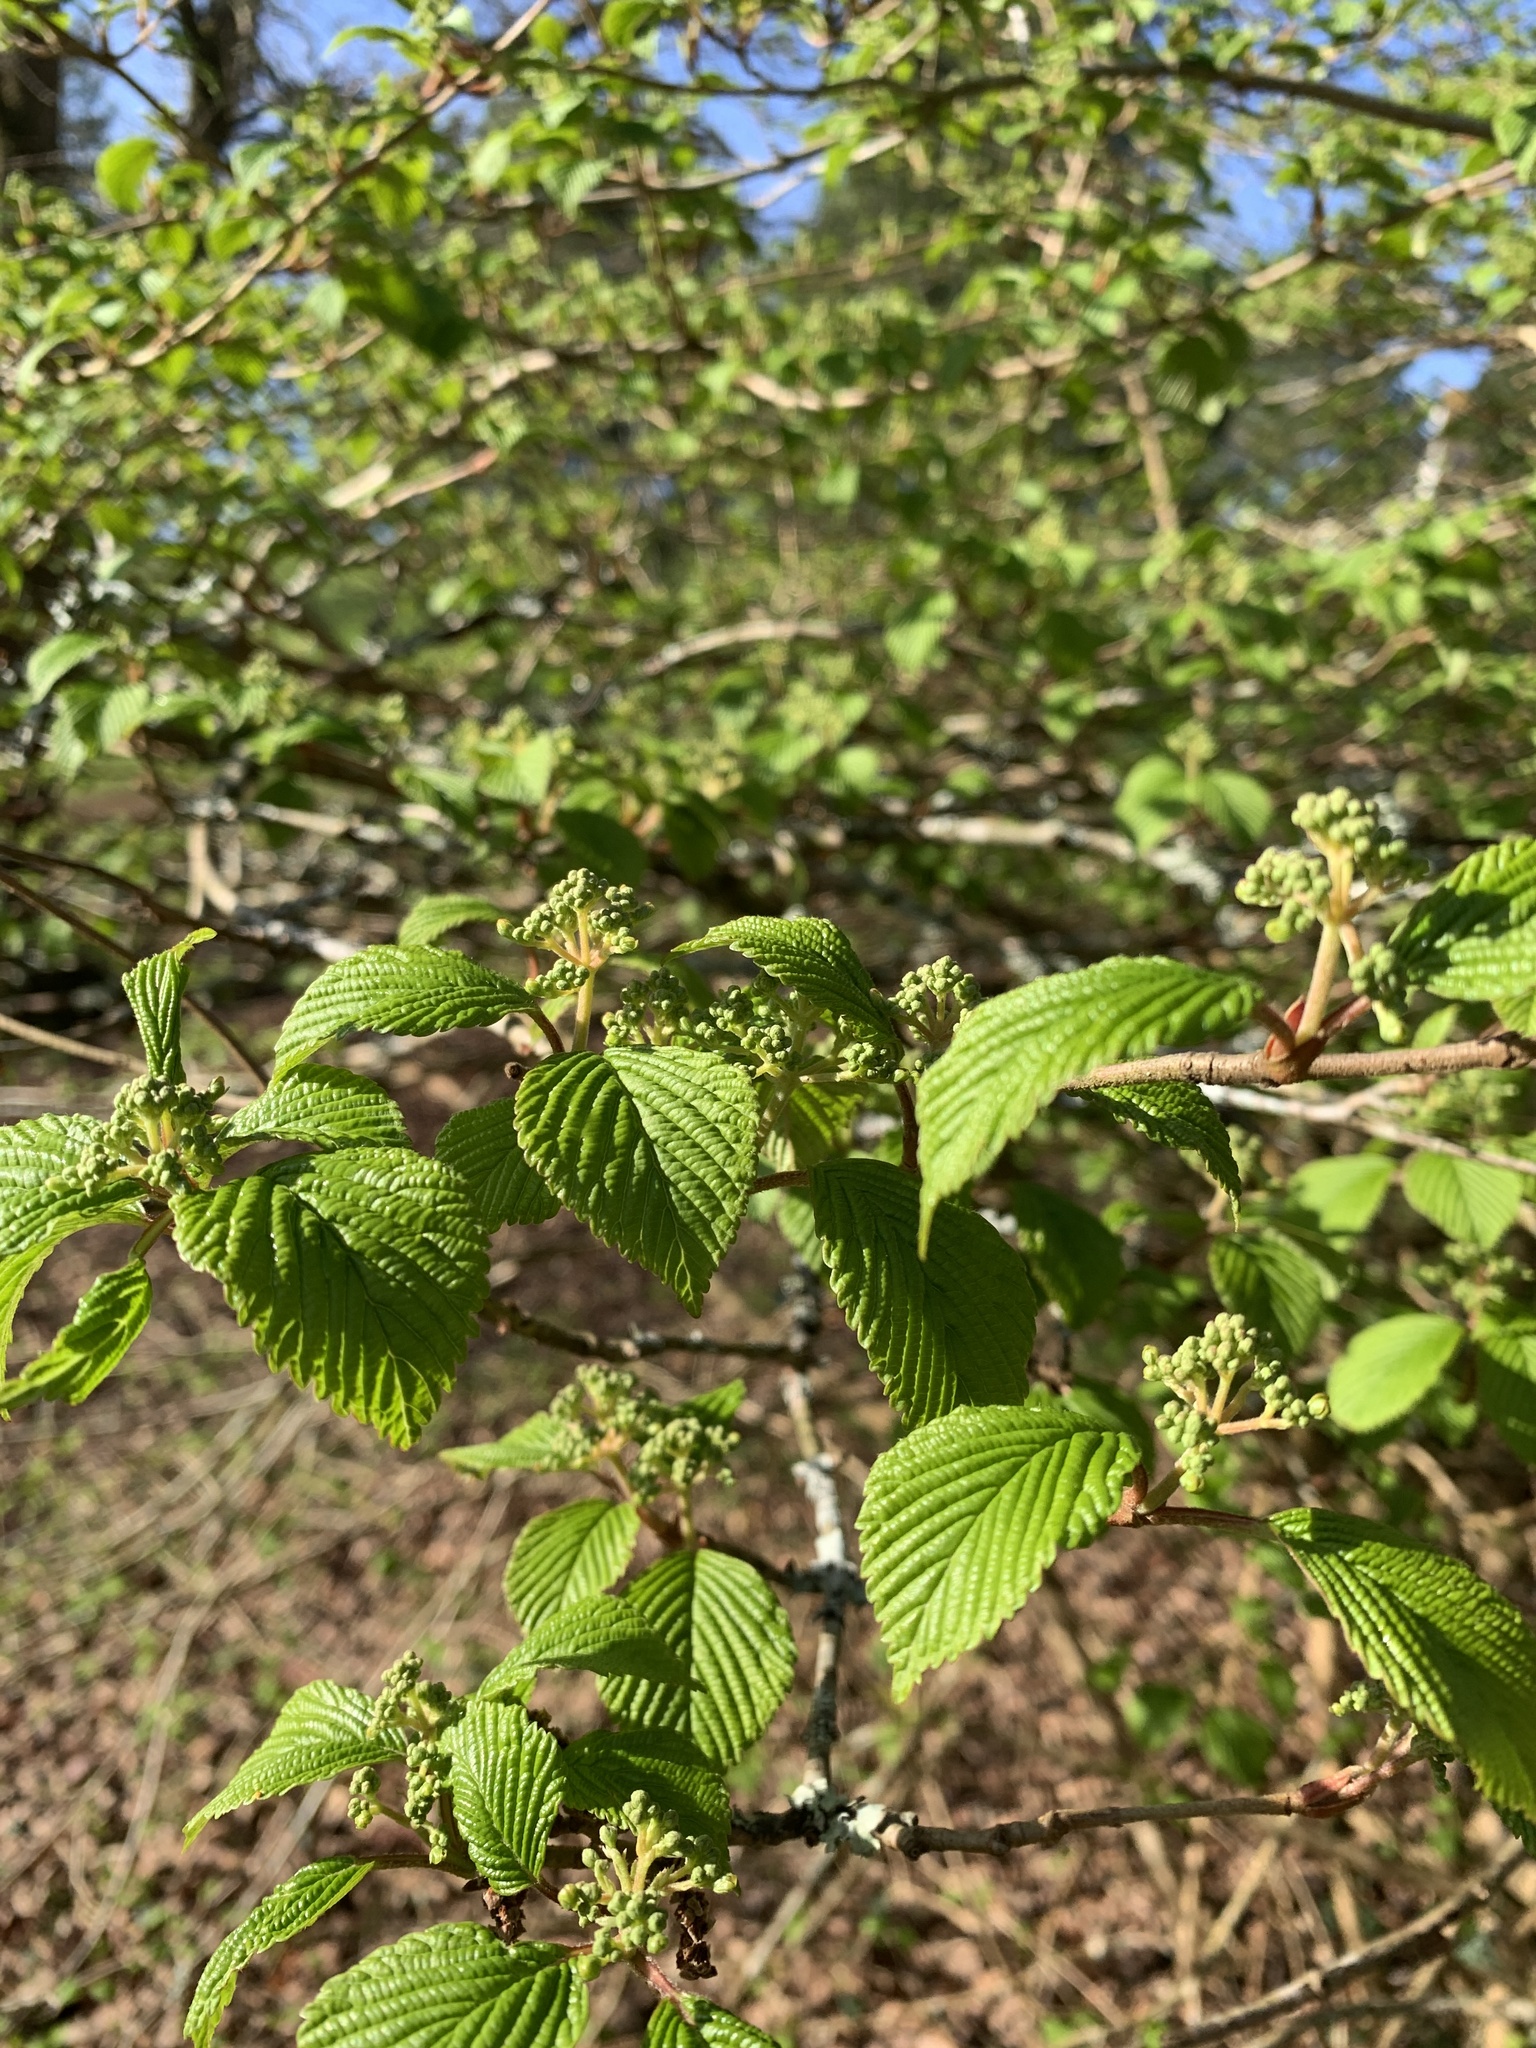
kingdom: Plantae
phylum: Tracheophyta
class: Magnoliopsida
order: Dipsacales
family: Viburnaceae
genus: Viburnum
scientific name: Viburnum plicatum
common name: Japanese snowball
